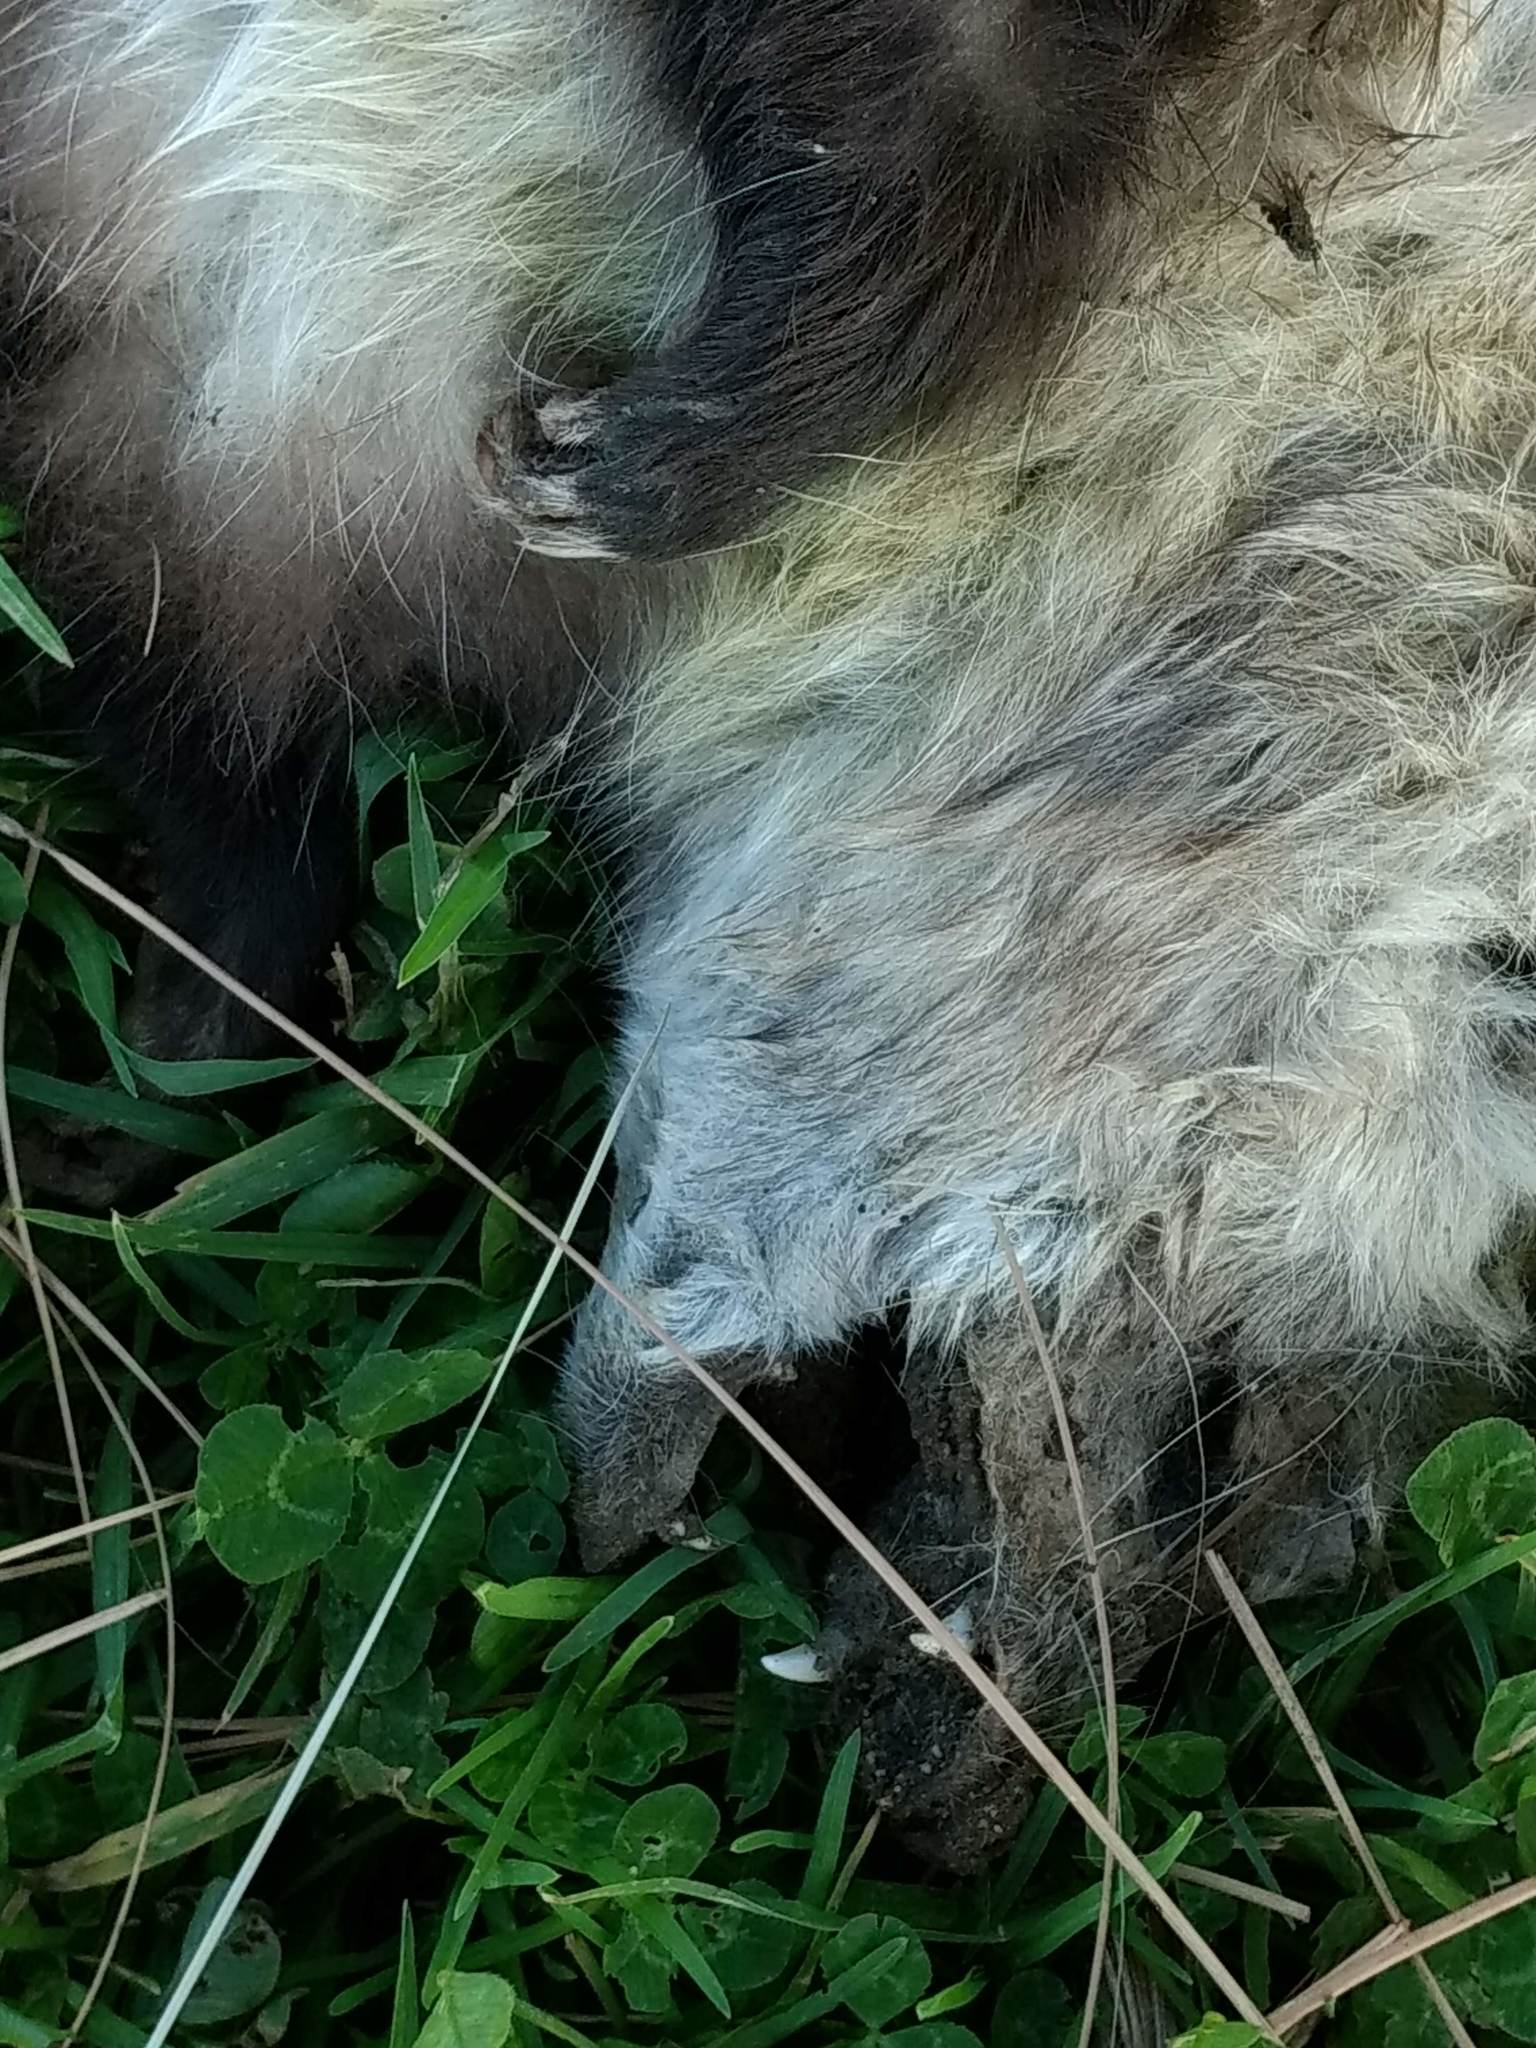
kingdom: Animalia
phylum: Chordata
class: Mammalia
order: Didelphimorphia
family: Didelphidae
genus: Didelphis
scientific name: Didelphis virginiana
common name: Virginia opossum
